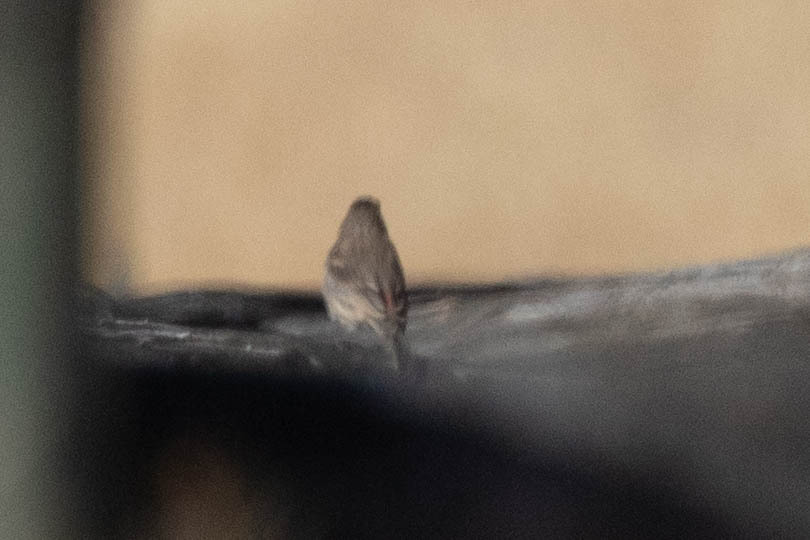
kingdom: Animalia
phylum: Chordata
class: Aves
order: Passeriformes
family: Fringillidae
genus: Haemorhous
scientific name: Haemorhous mexicanus
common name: House finch
